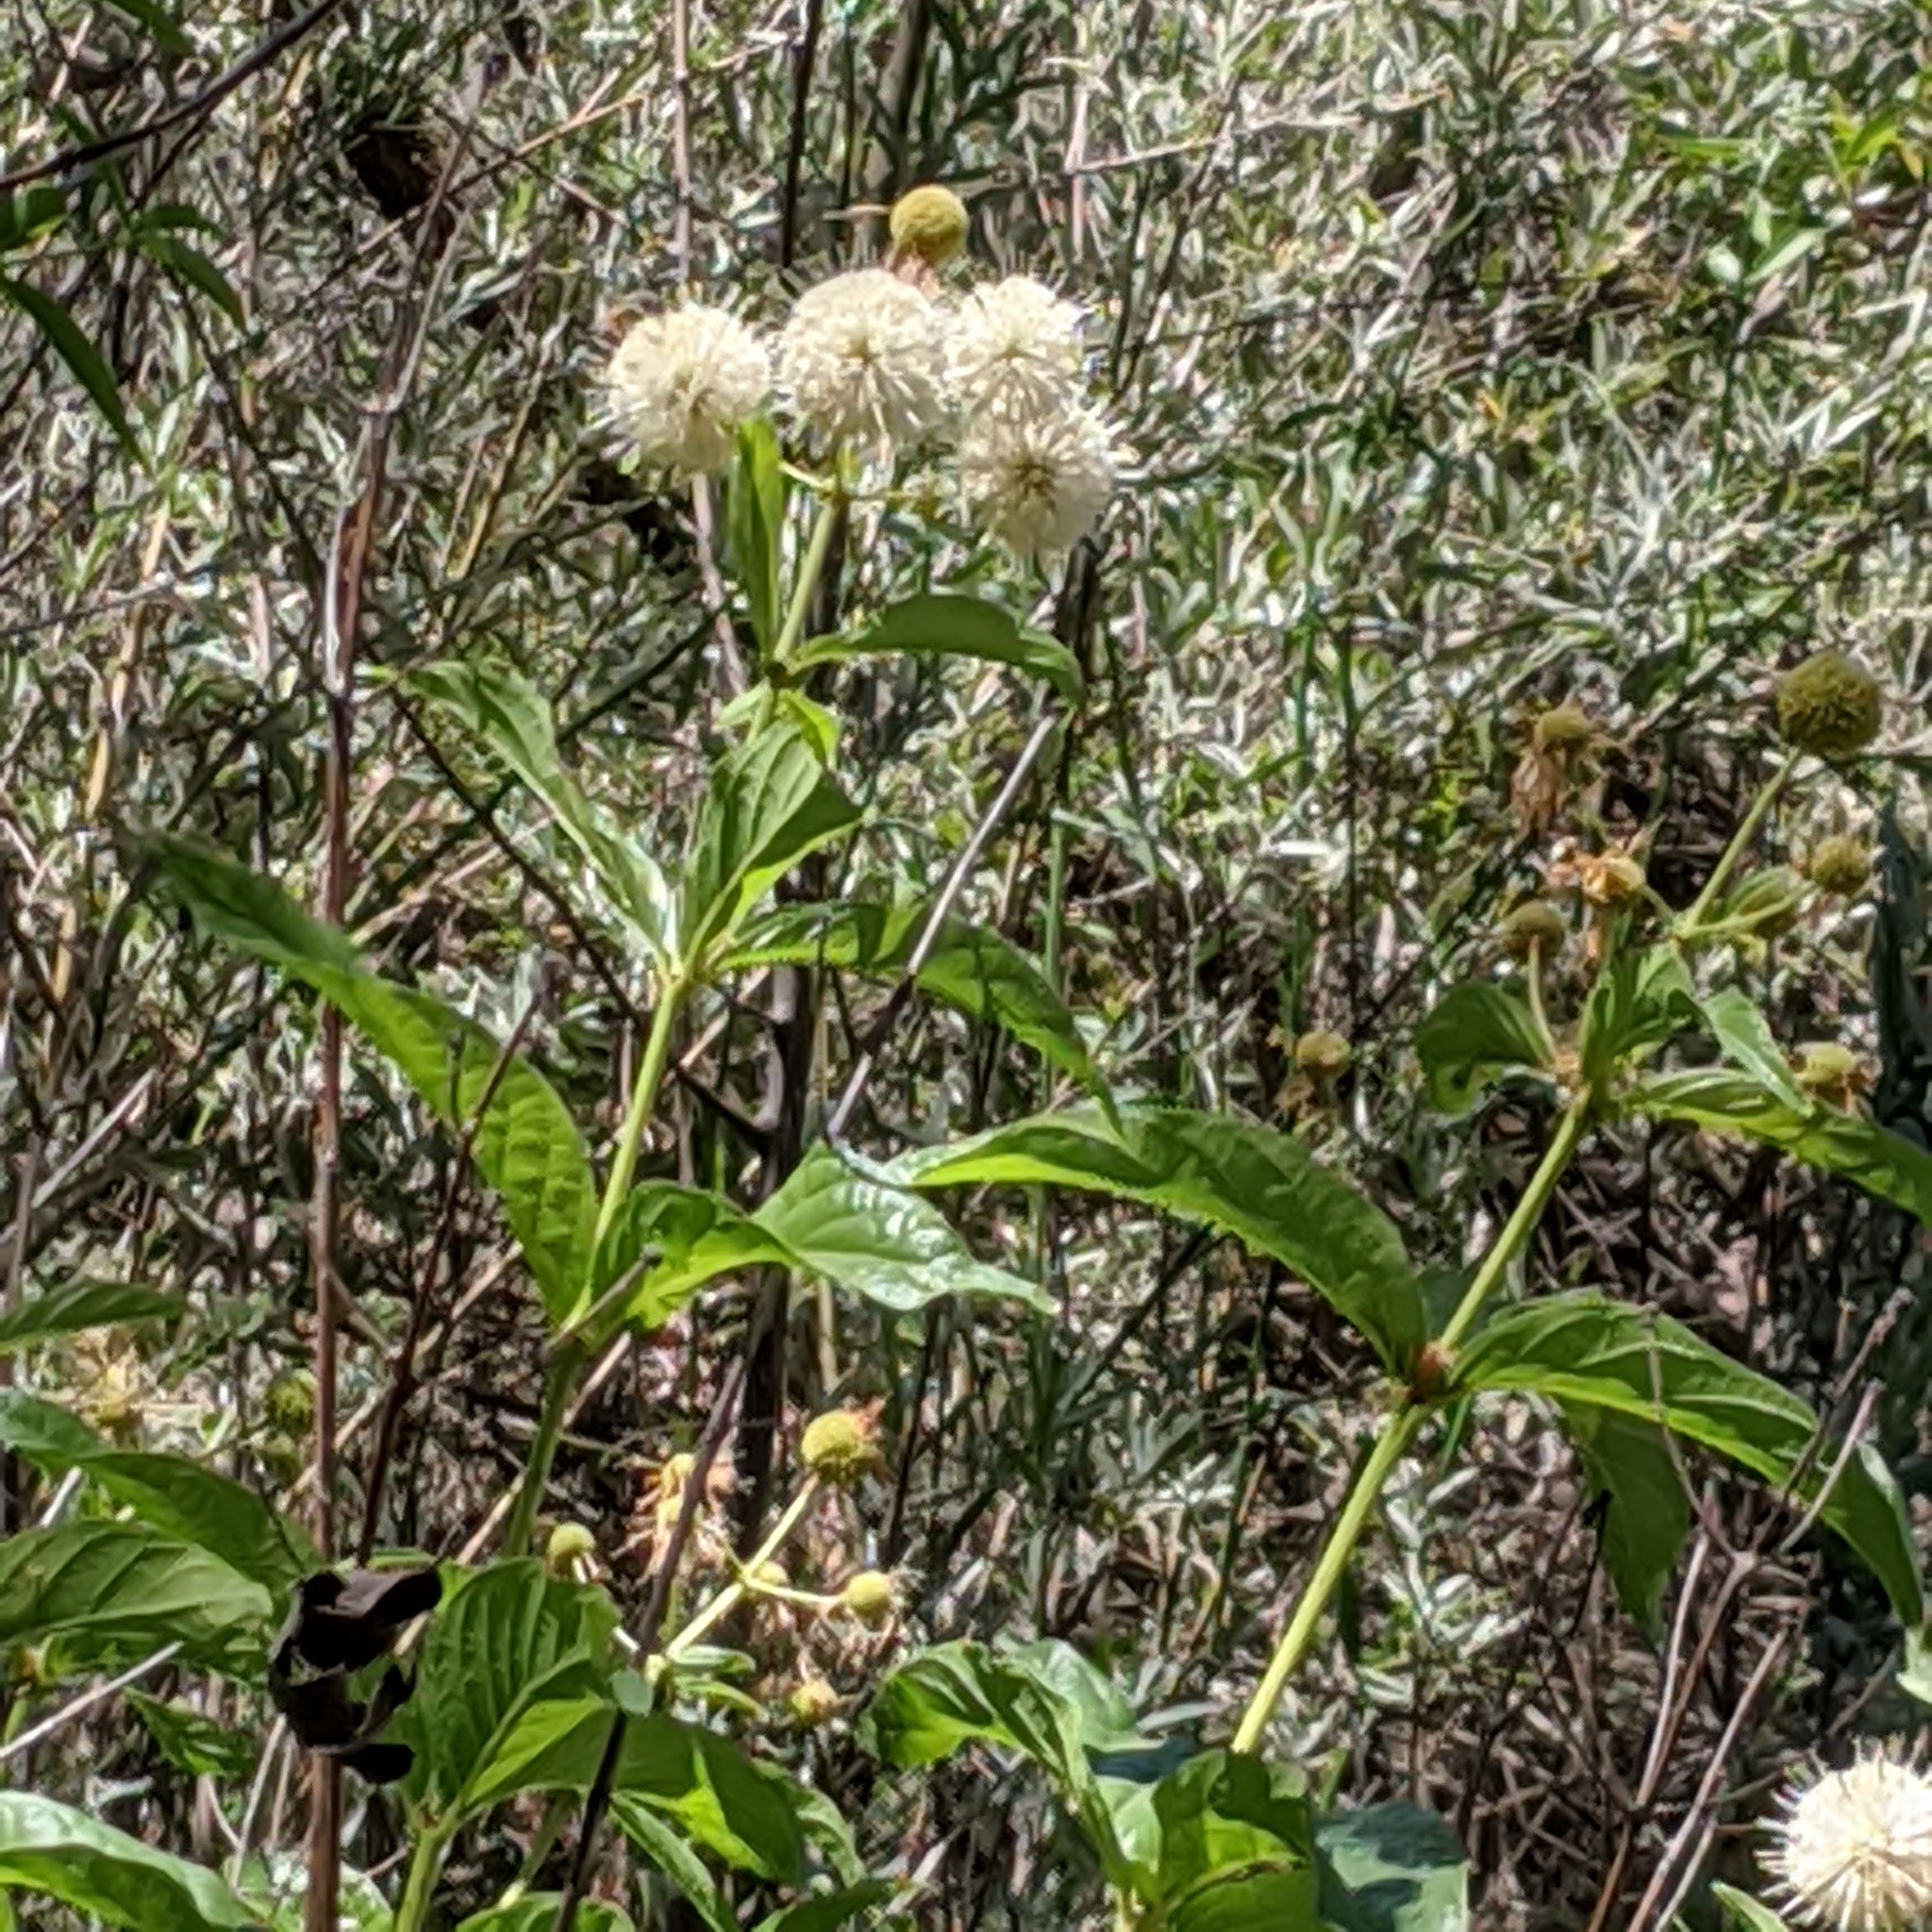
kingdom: Plantae
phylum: Tracheophyta
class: Magnoliopsida
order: Gentianales
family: Rubiaceae
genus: Cephalanthus
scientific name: Cephalanthus occidentalis
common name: Button-willow
